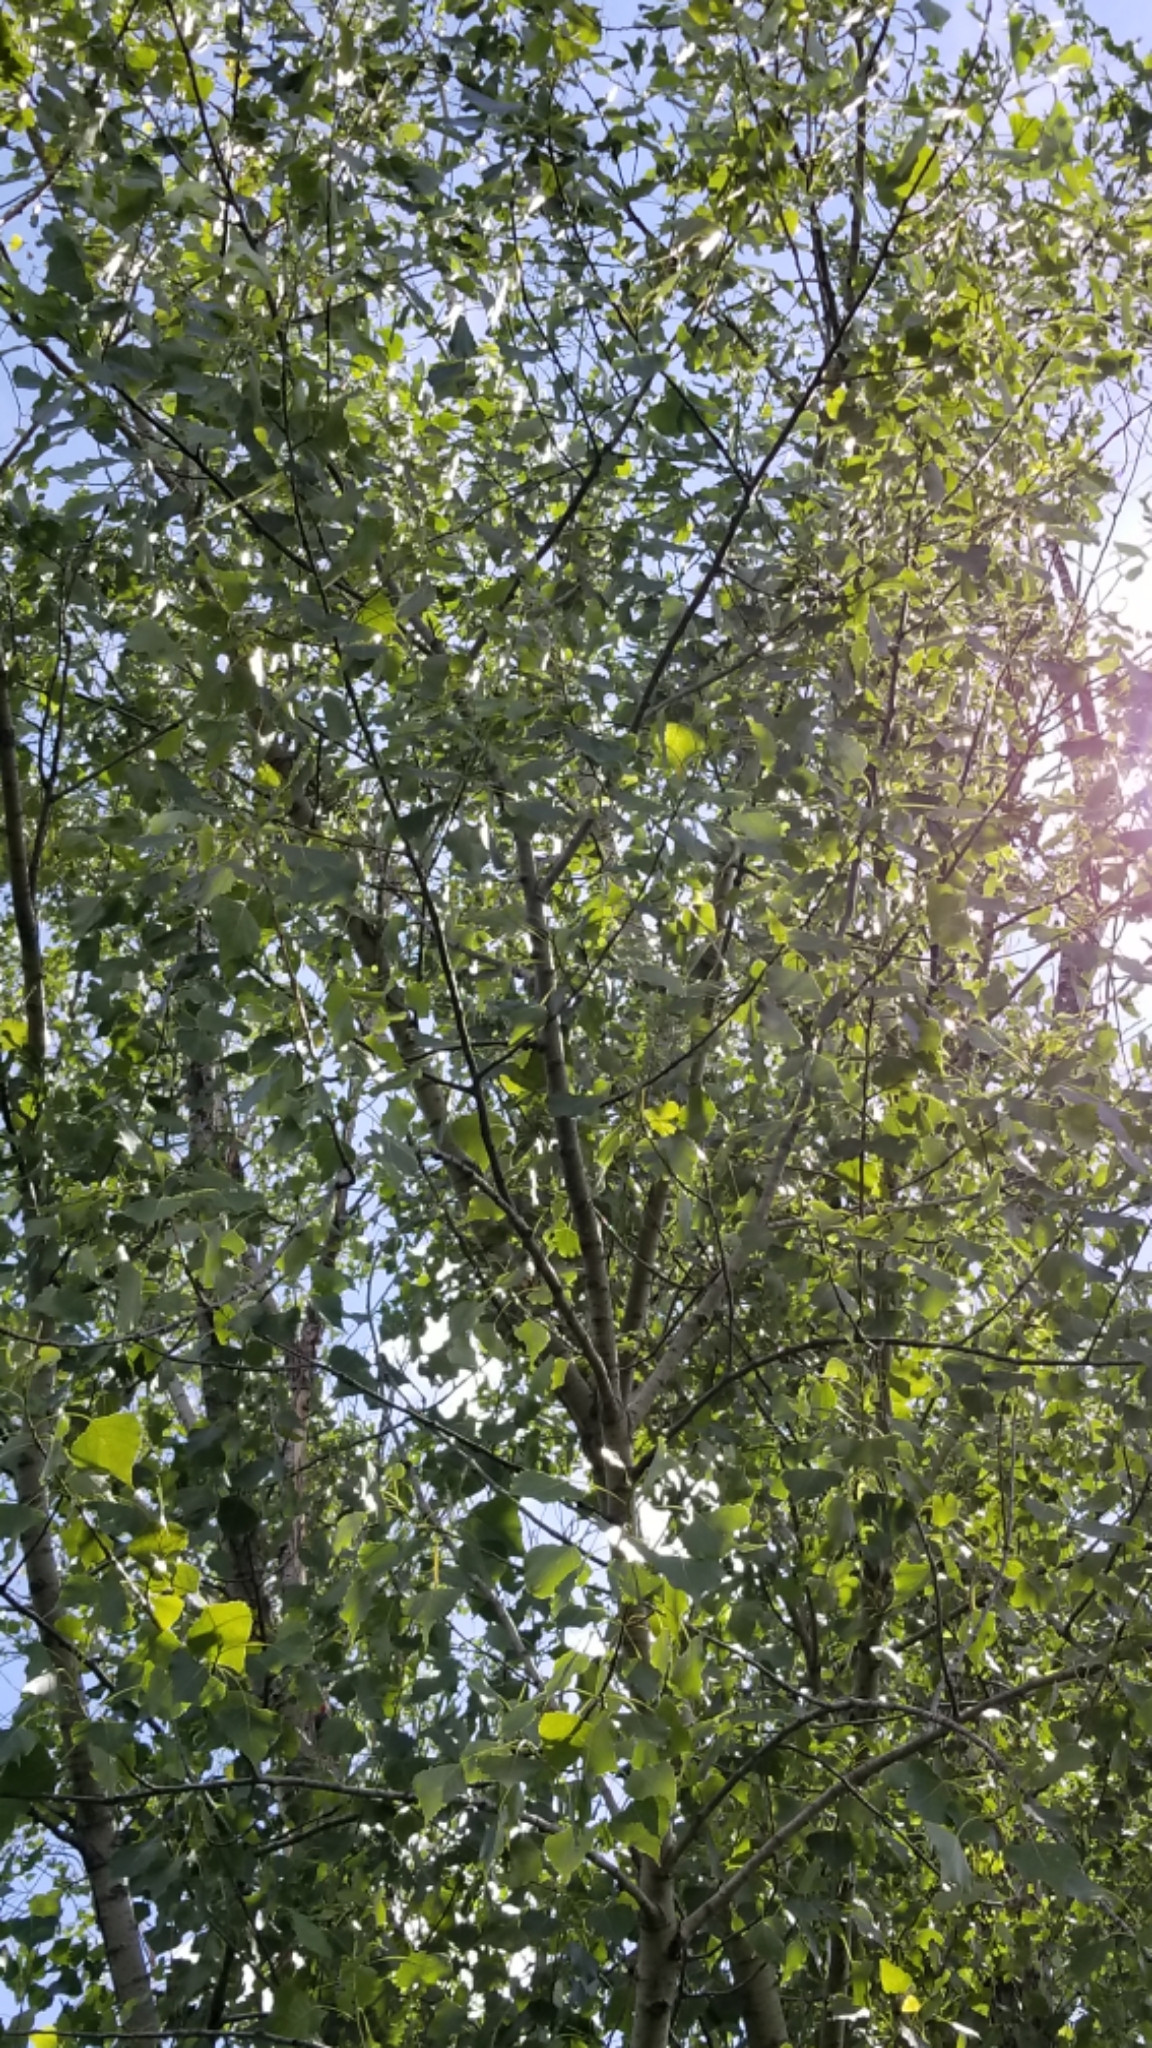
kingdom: Plantae
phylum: Tracheophyta
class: Magnoliopsida
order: Malpighiales
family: Salicaceae
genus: Populus
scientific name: Populus deltoides
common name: Eastern cottonwood
